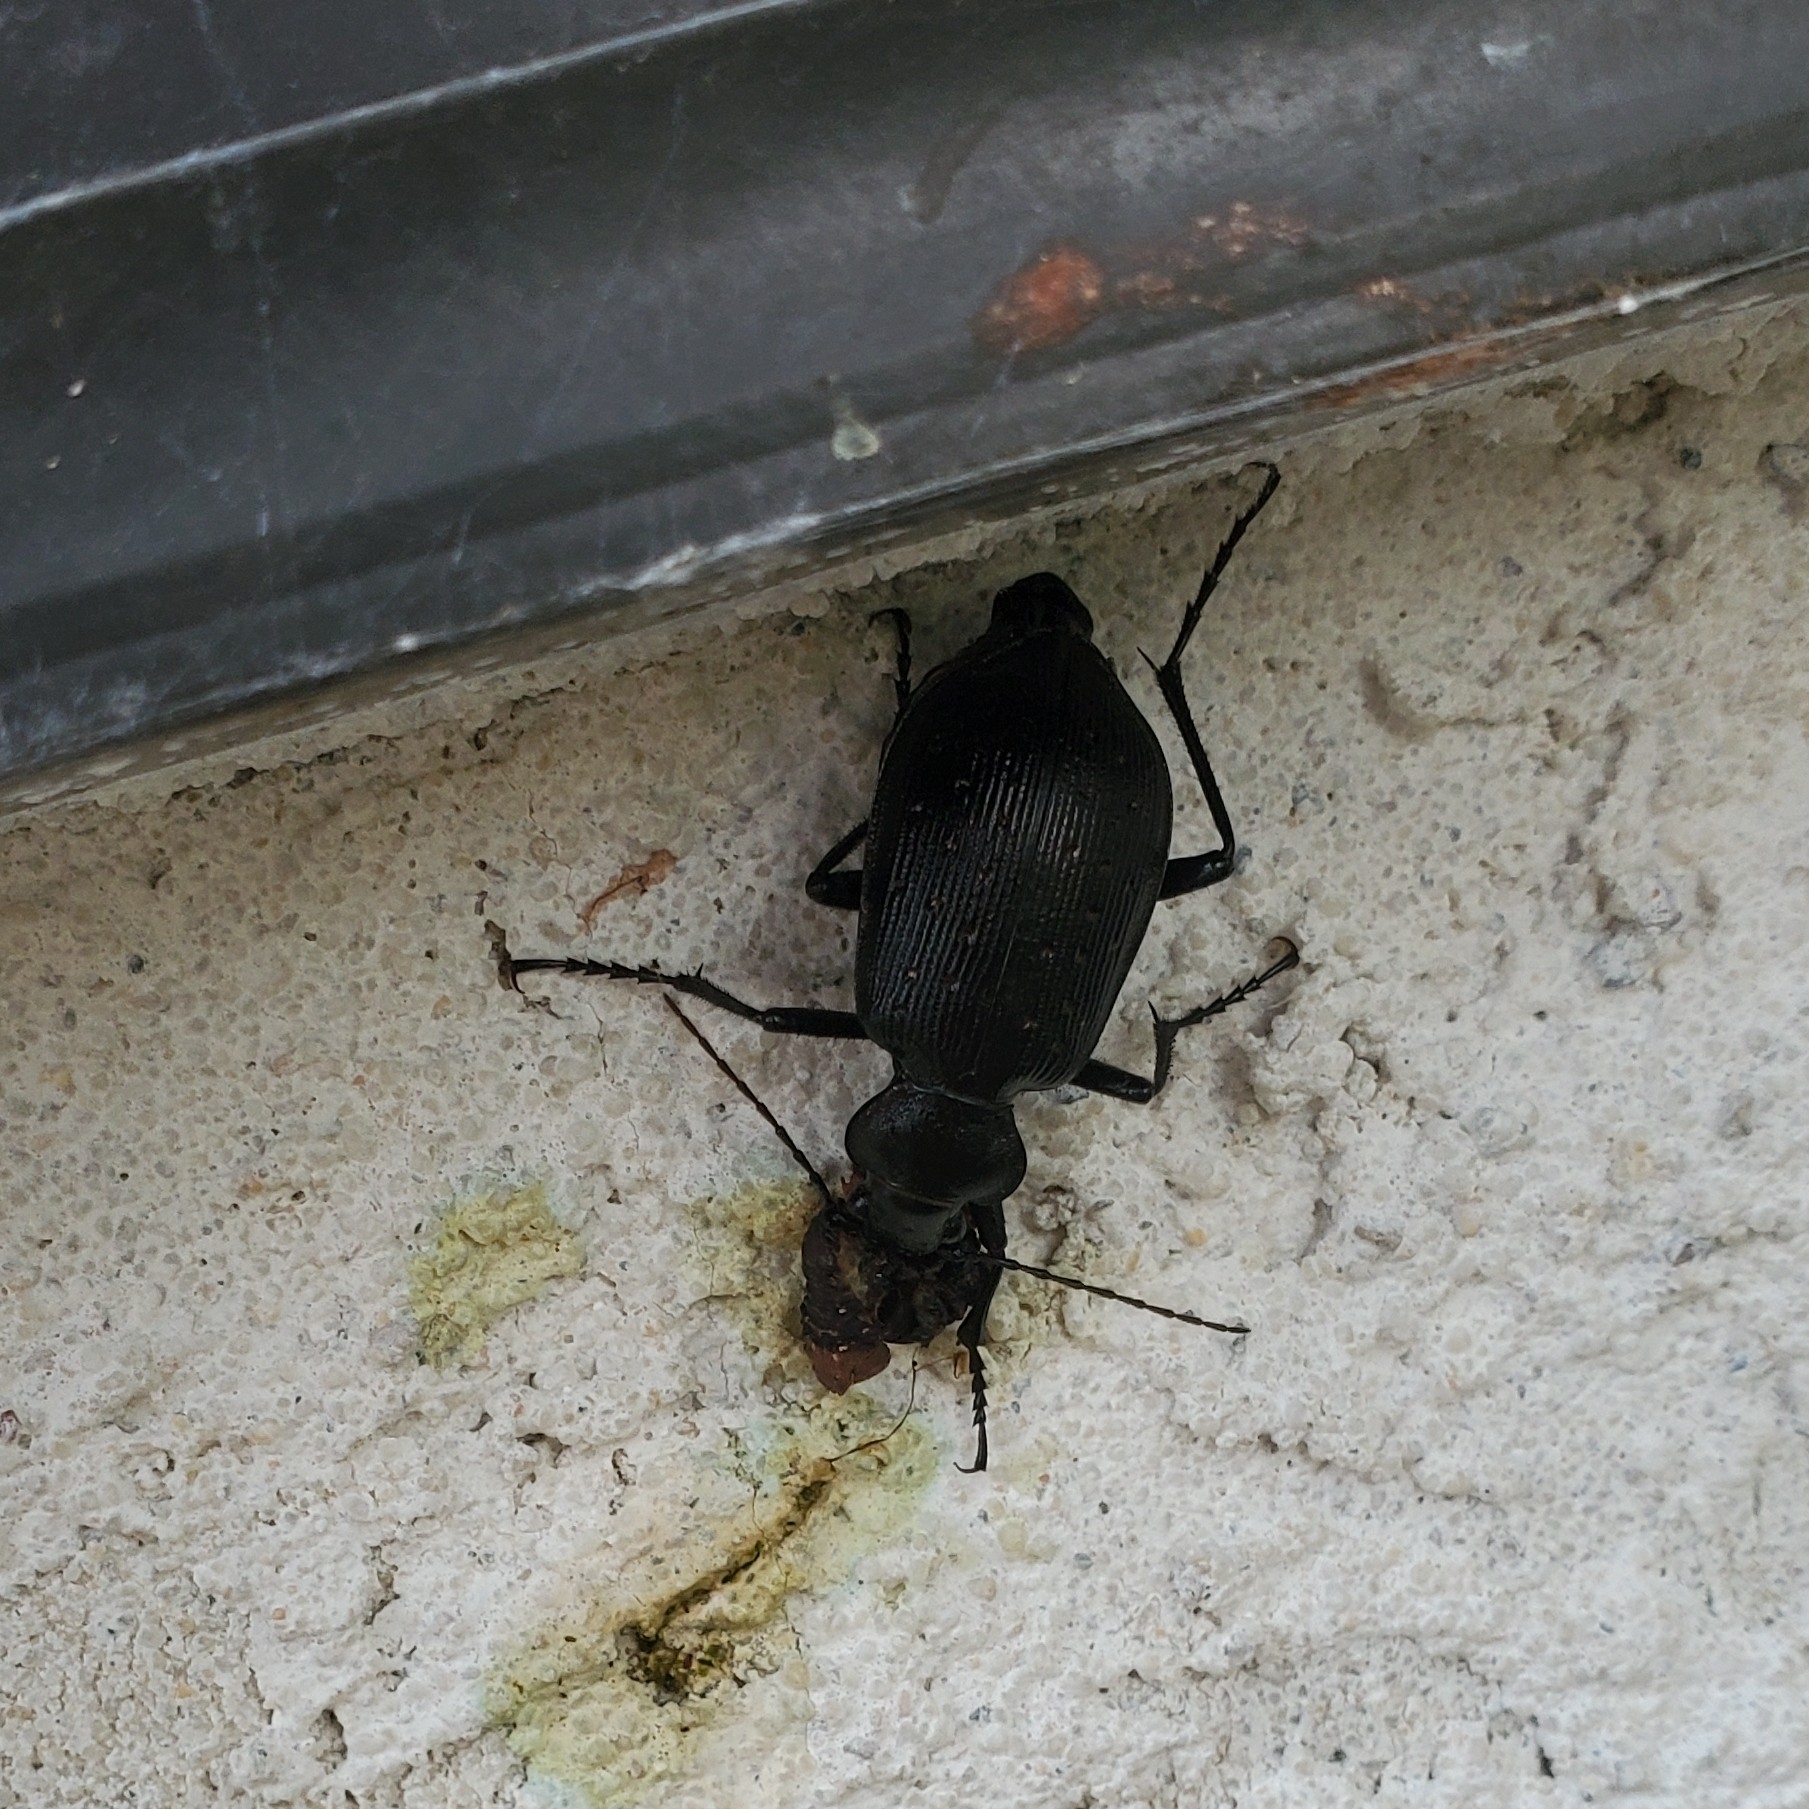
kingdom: Animalia
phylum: Arthropoda
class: Insecta
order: Coleoptera
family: Carabidae
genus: Calosoma
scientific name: Calosoma frigidum
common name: Cold-country caterpillar hunter
